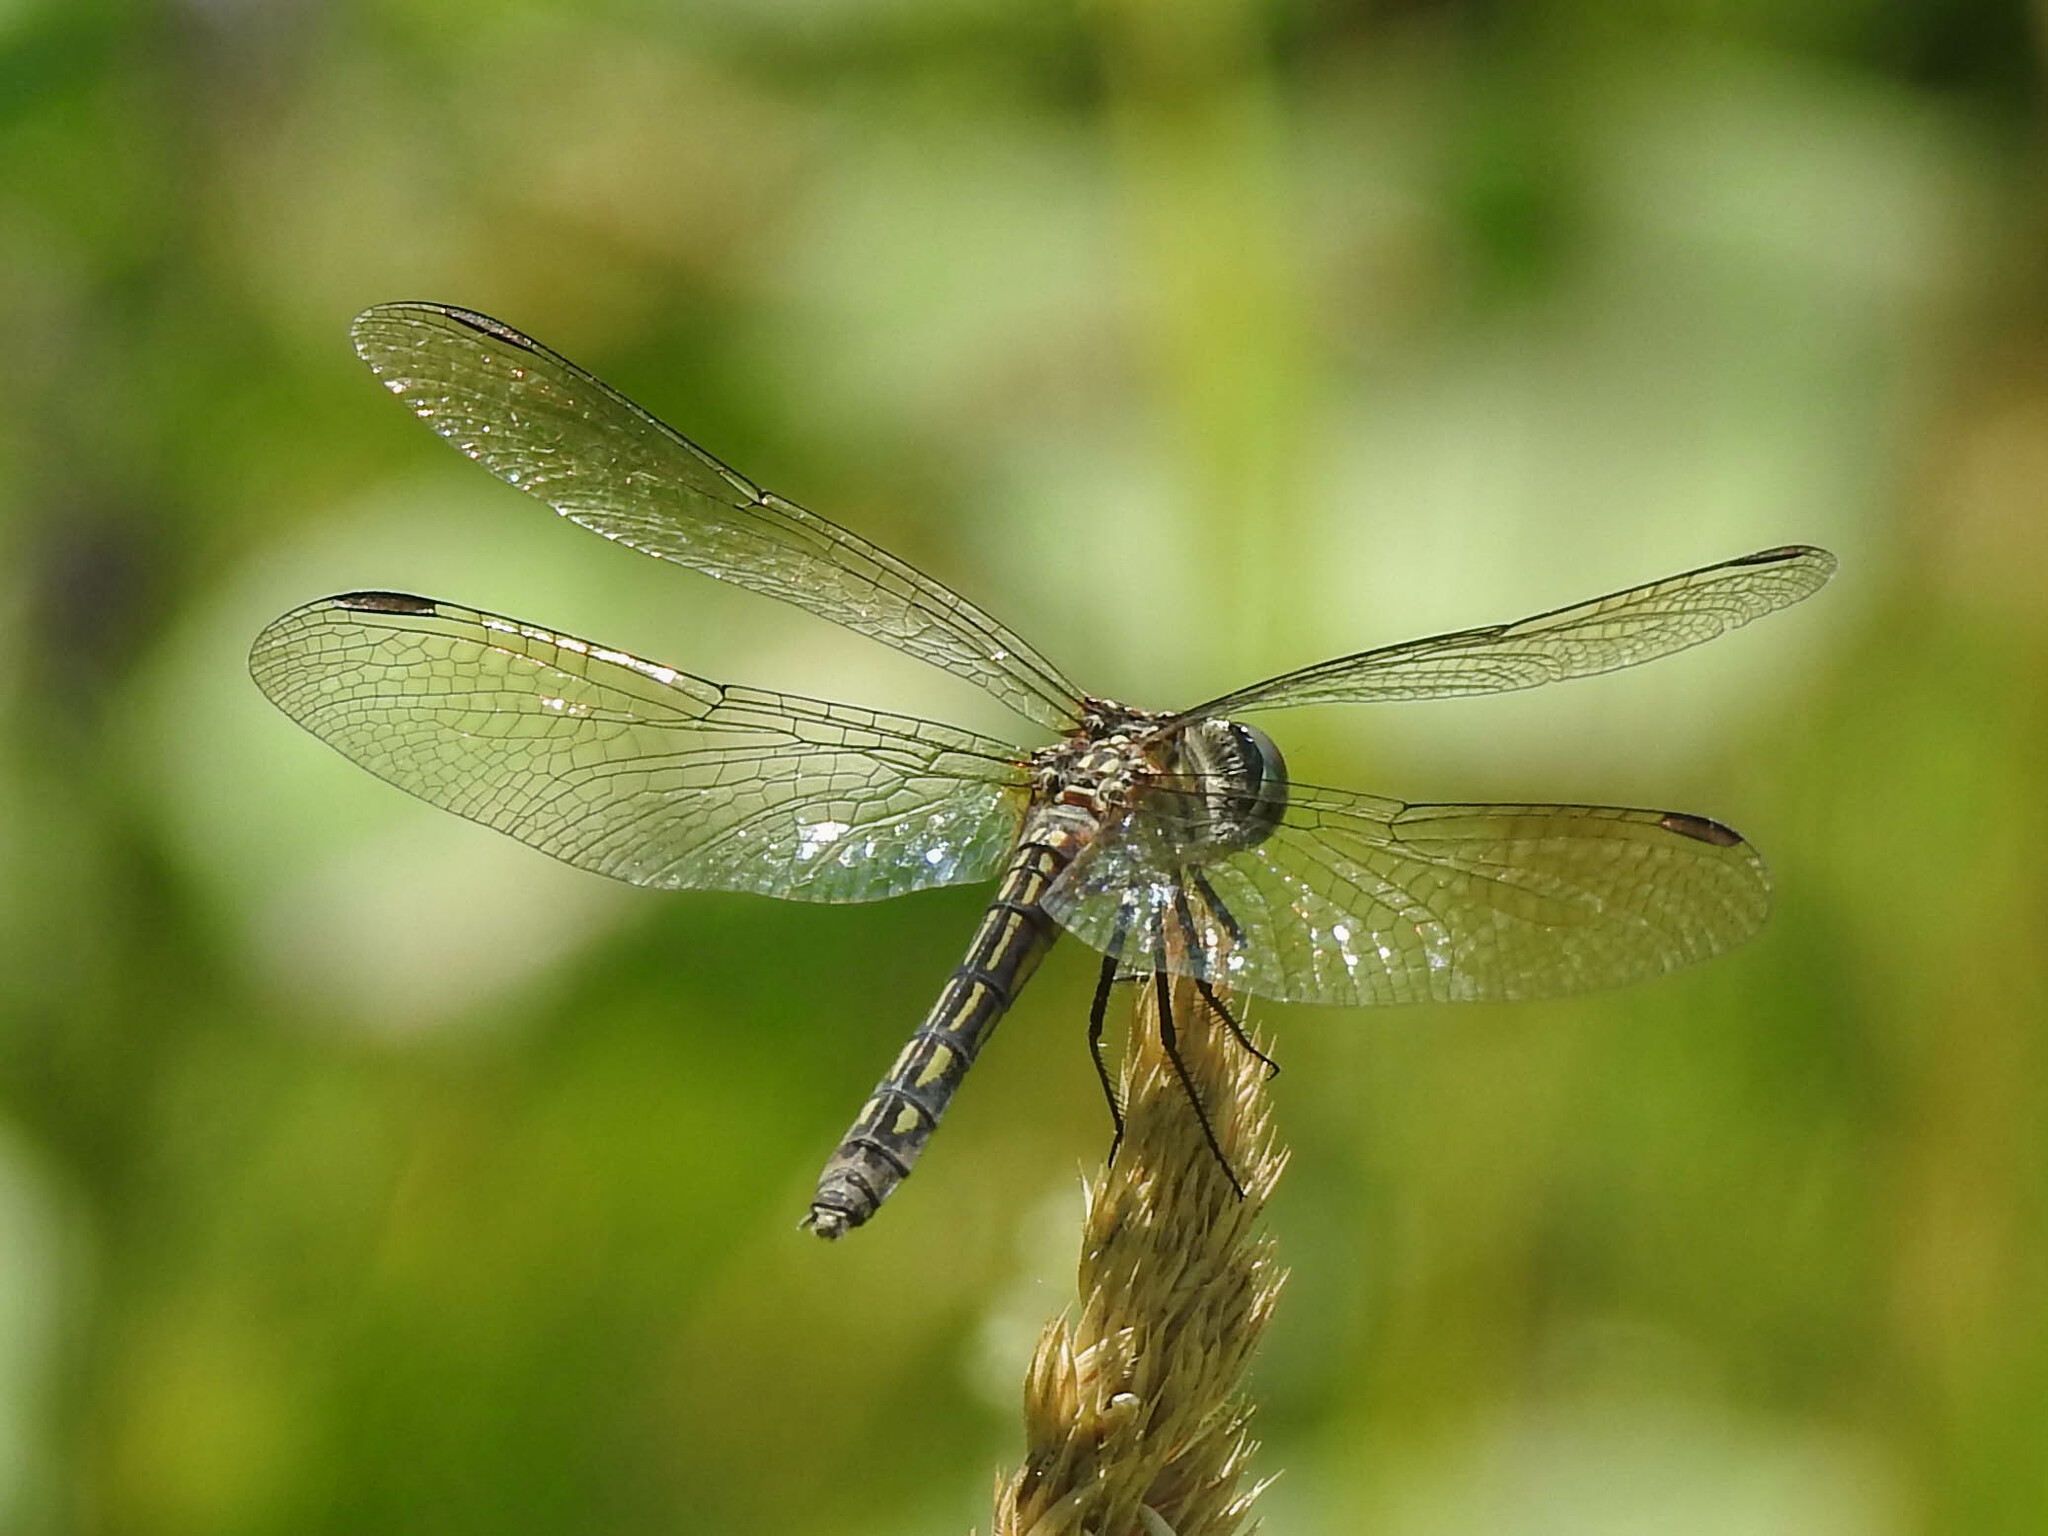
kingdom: Animalia
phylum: Arthropoda
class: Insecta
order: Odonata
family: Libellulidae
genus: Pachydiplax
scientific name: Pachydiplax longipennis
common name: Blue dasher
